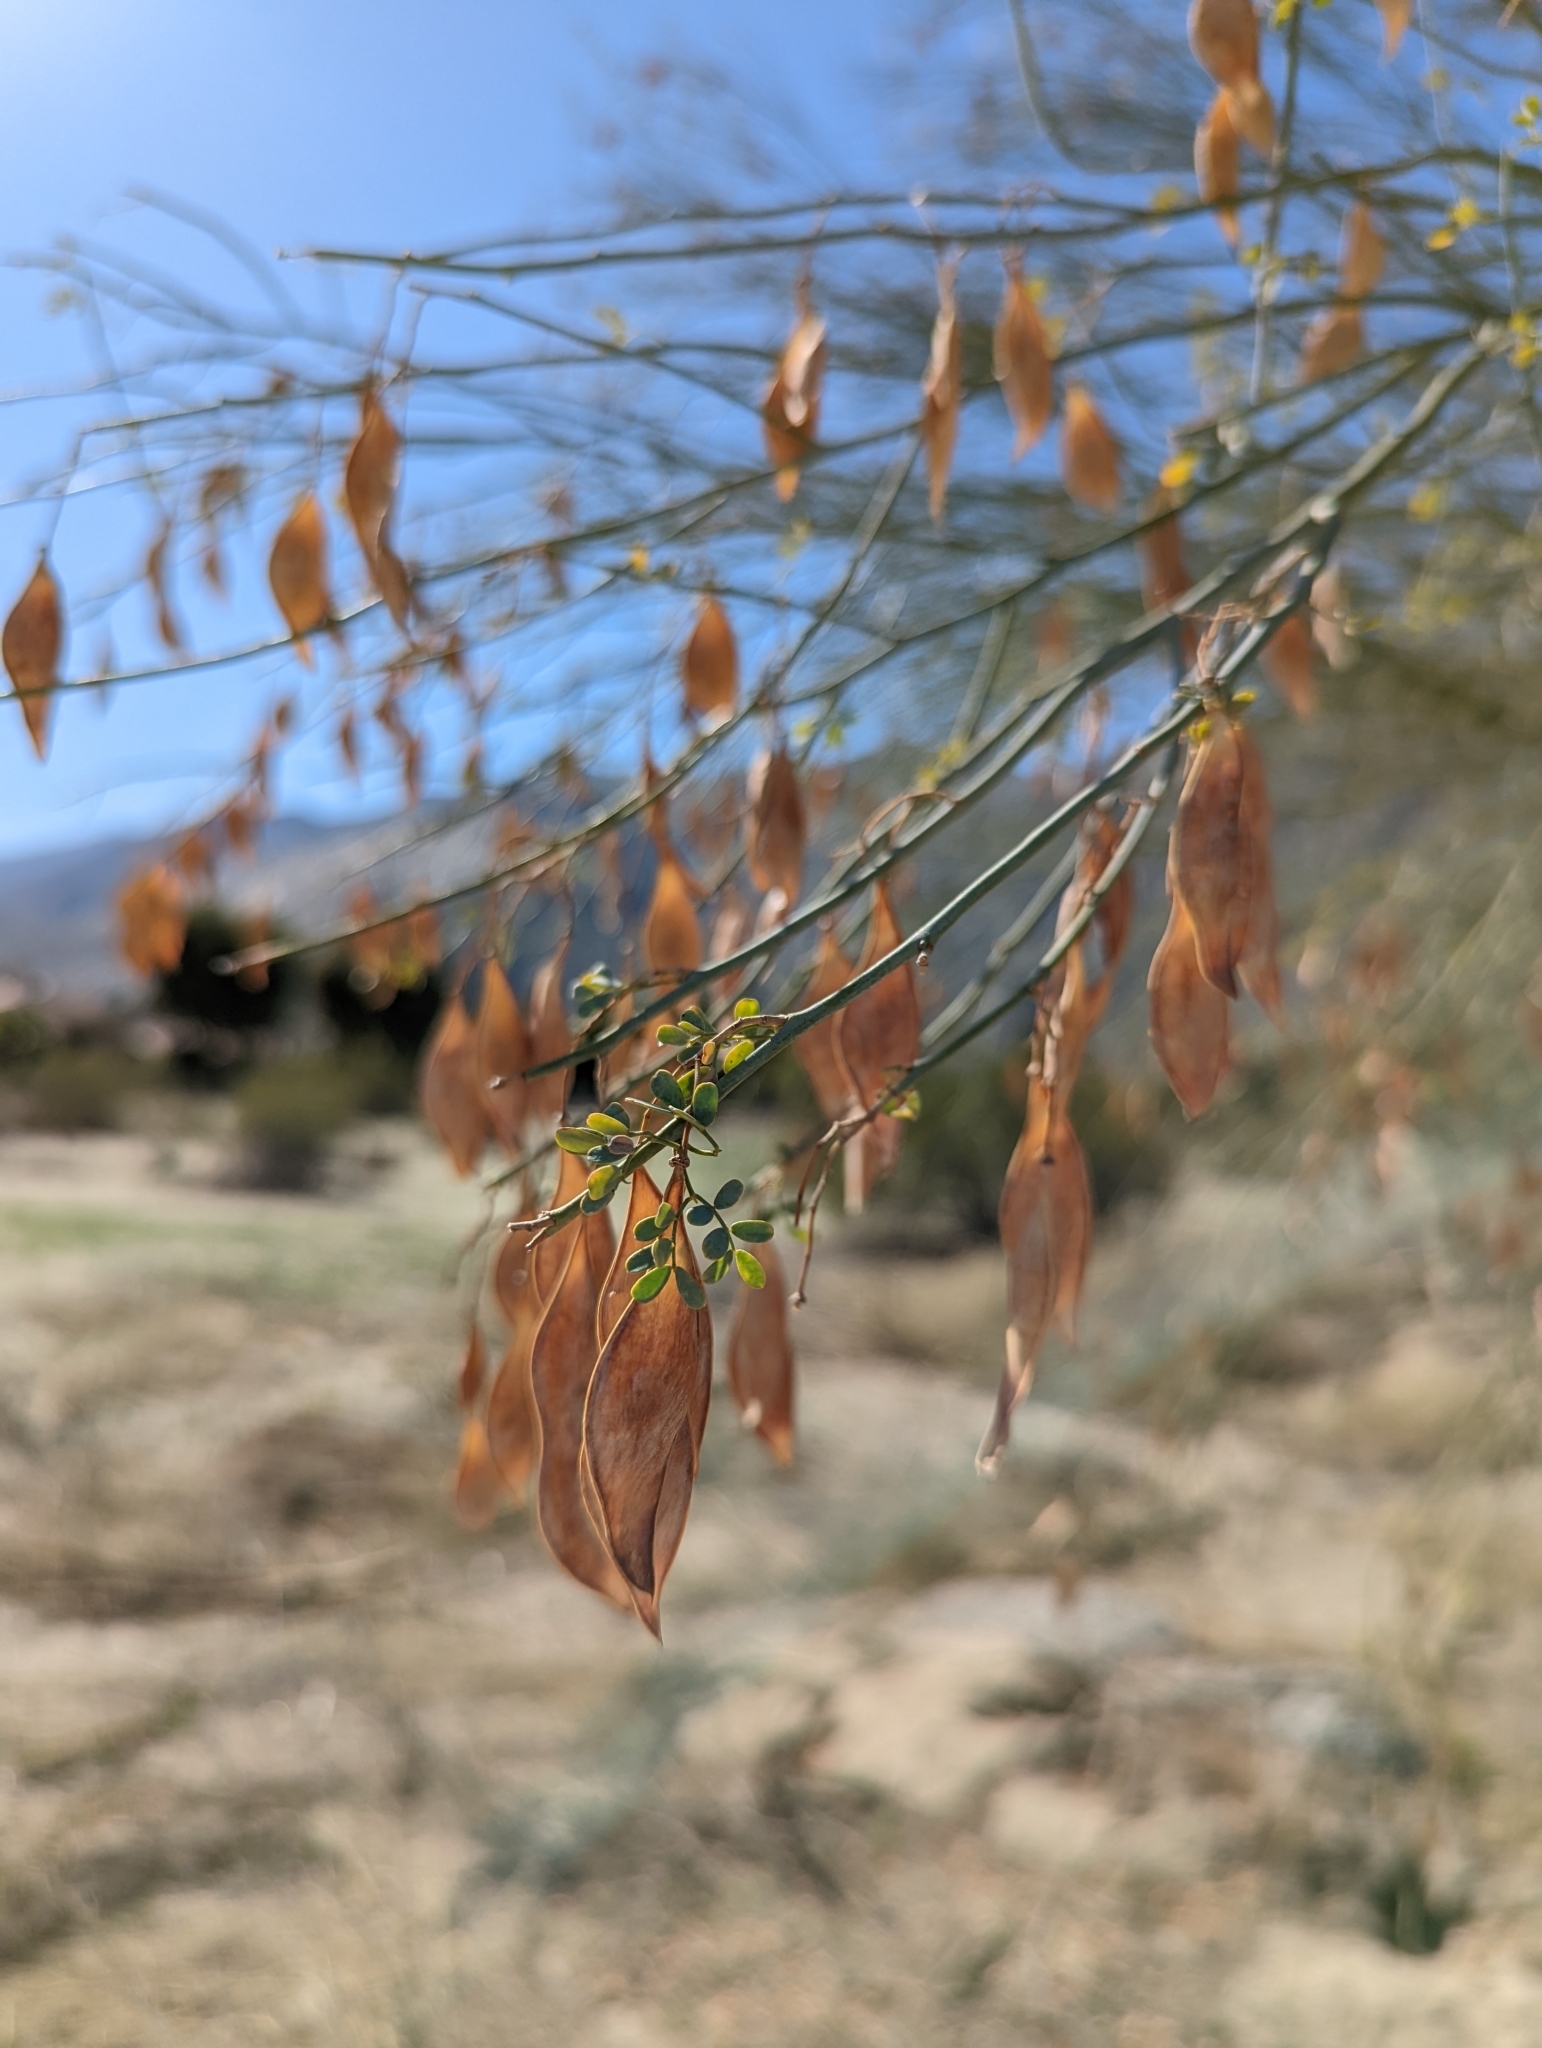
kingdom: Plantae
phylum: Tracheophyta
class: Magnoliopsida
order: Fabales
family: Fabaceae
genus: Parkinsonia
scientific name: Parkinsonia florida
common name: Blue paloverde
